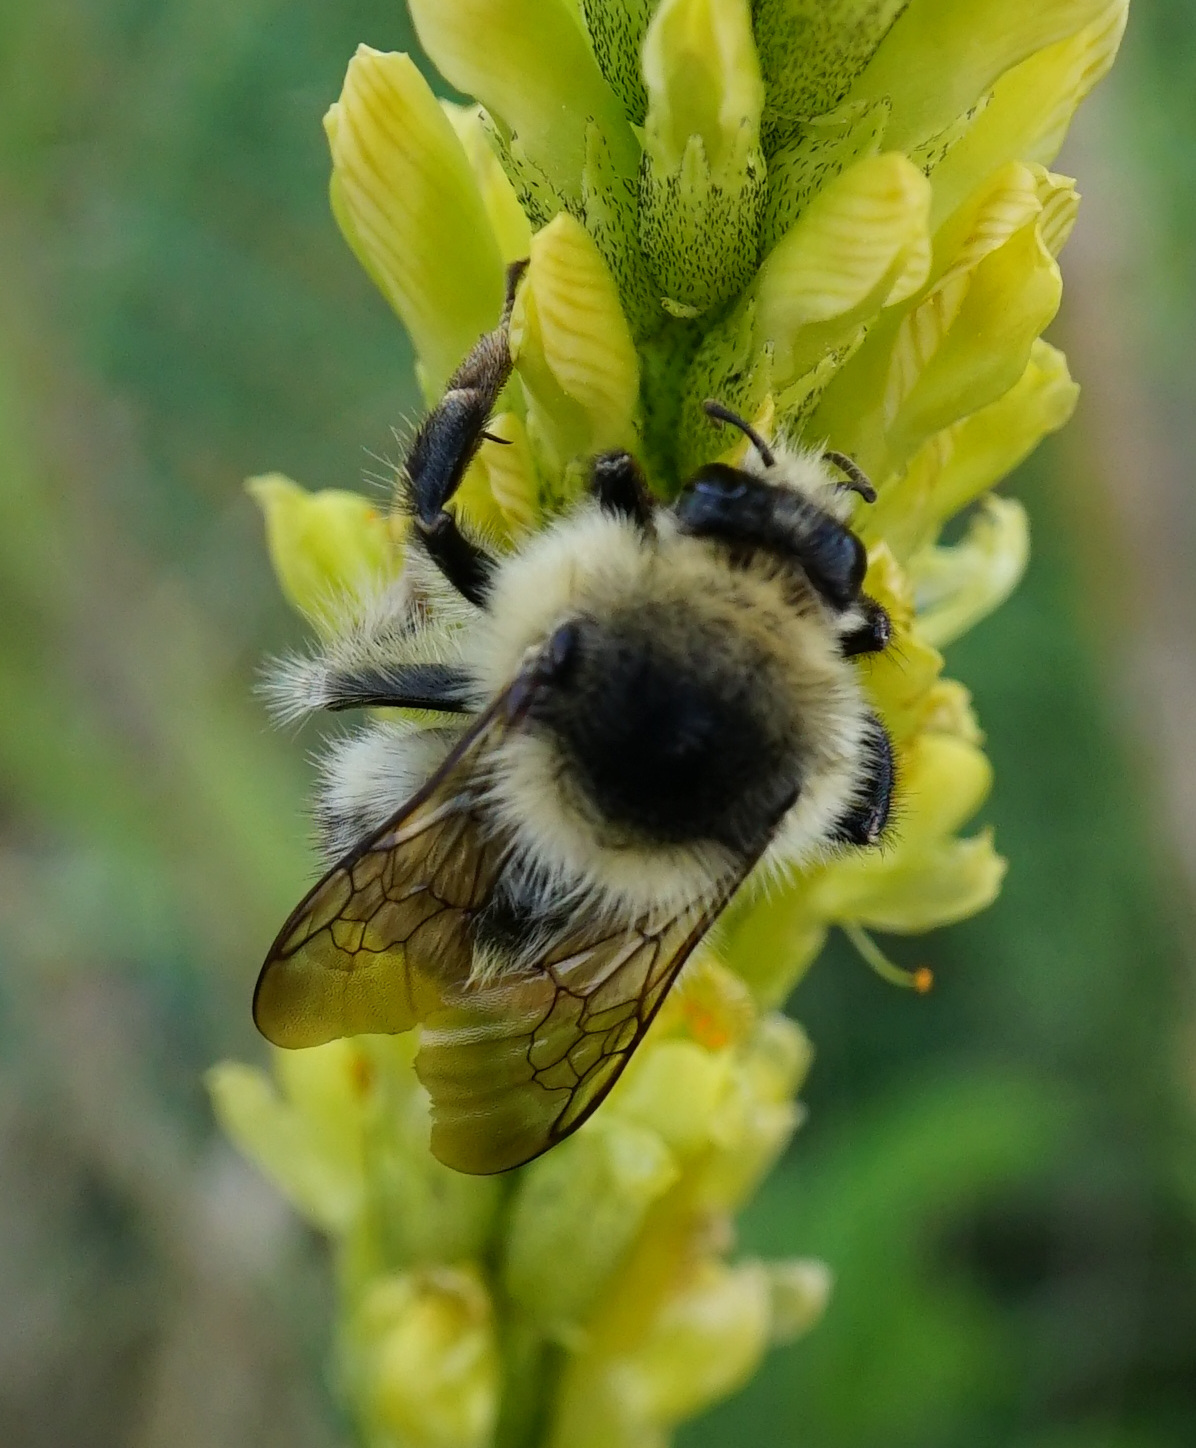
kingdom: Animalia
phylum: Arthropoda
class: Insecta
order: Hymenoptera
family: Apidae
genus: Bombus
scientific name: Bombus sylvarum
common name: Shrill carder bee
